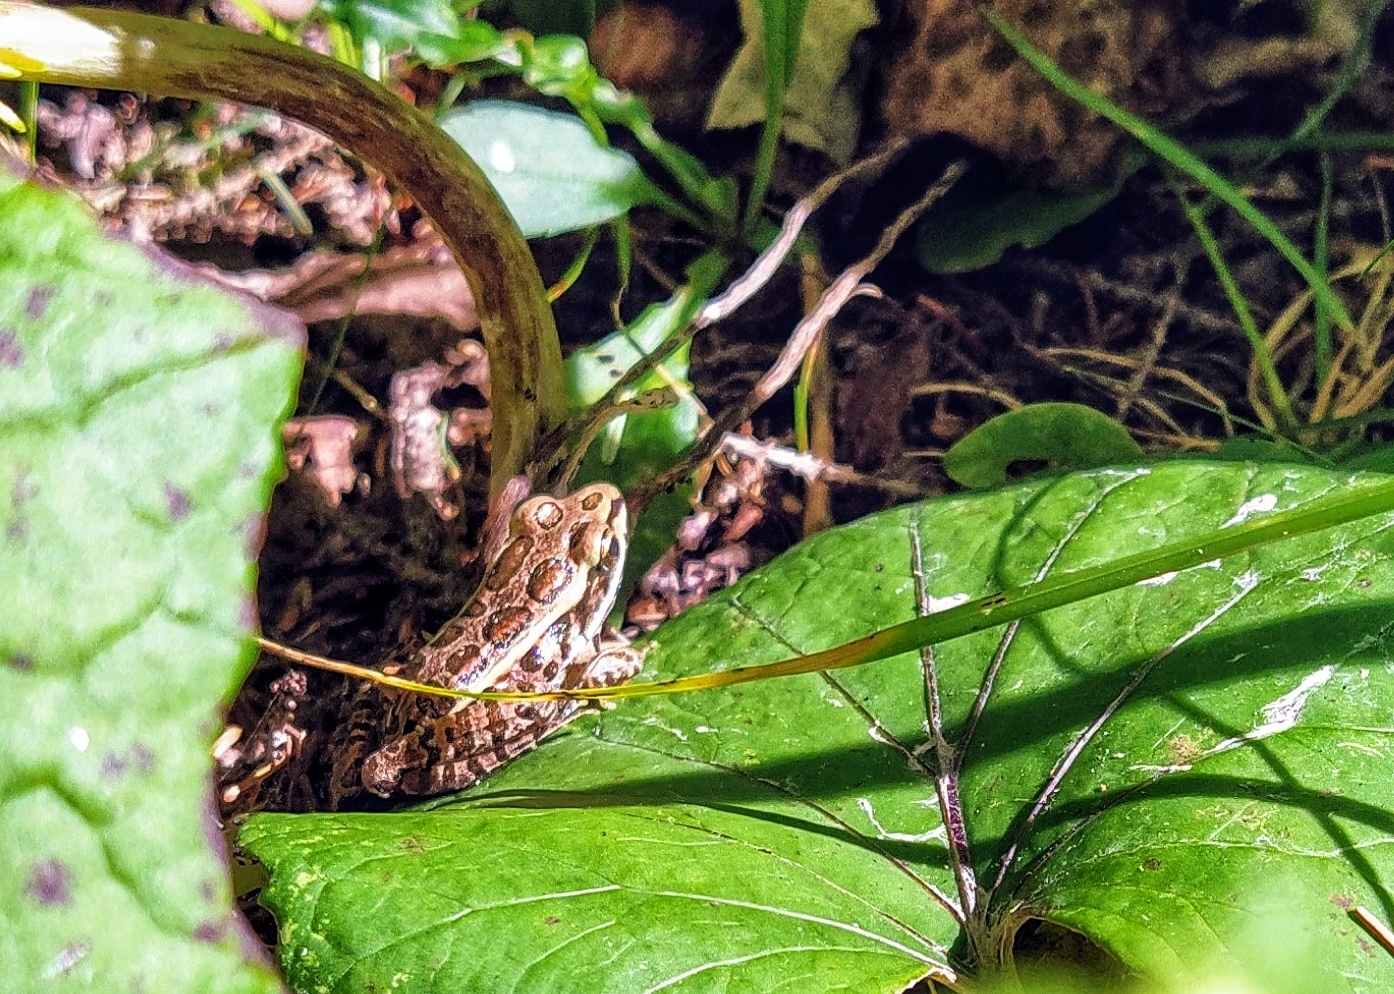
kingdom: Animalia
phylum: Chordata
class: Amphibia
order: Anura
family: Ranidae
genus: Lithobates
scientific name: Lithobates palustris
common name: Pickerel frog
